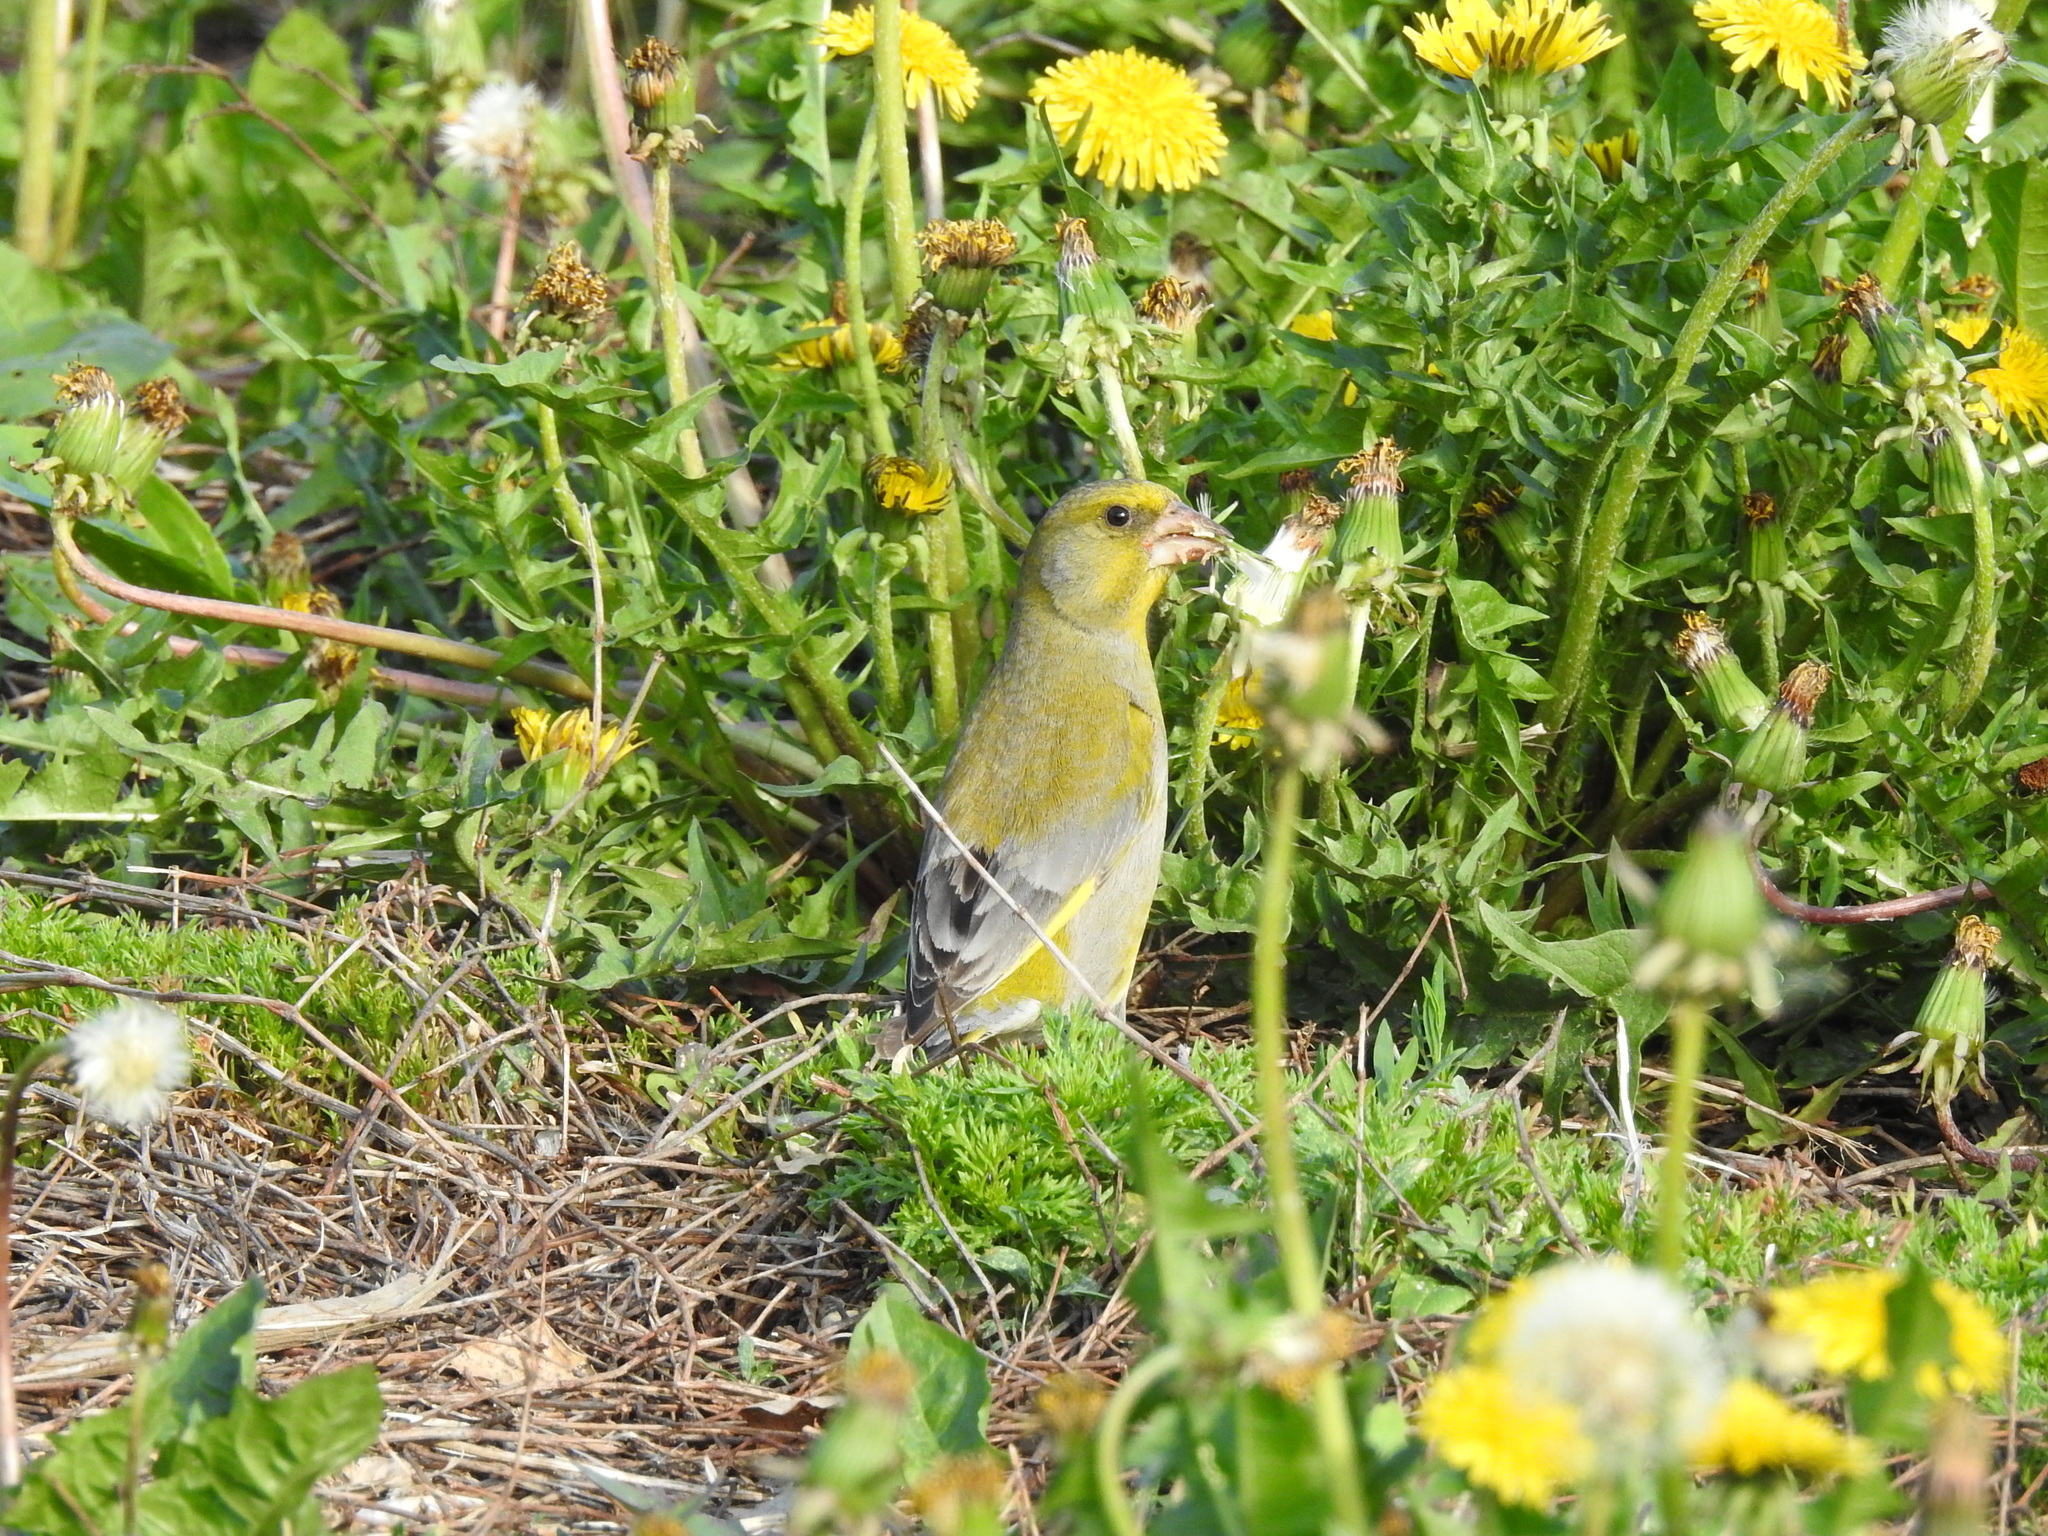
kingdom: Plantae
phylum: Tracheophyta
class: Liliopsida
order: Poales
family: Poaceae
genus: Chloris
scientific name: Chloris chloris
